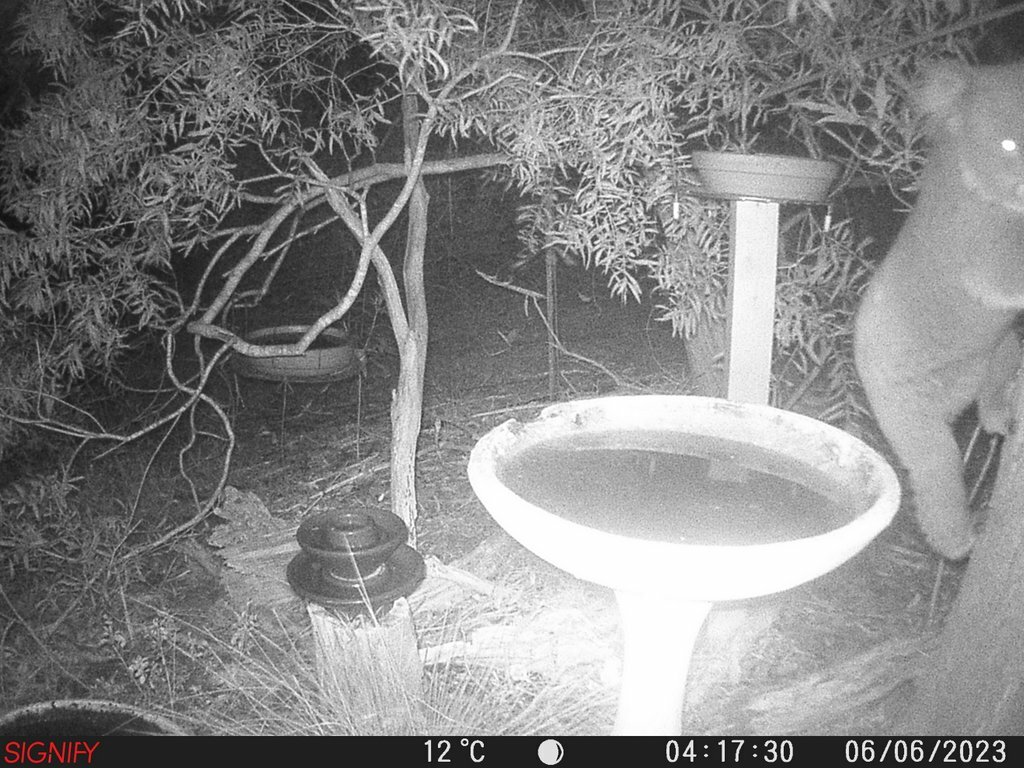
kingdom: Animalia
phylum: Chordata
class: Mammalia
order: Diprotodontia
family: Phascolarctidae
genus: Phascolarctos
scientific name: Phascolarctos cinereus
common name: Koala
